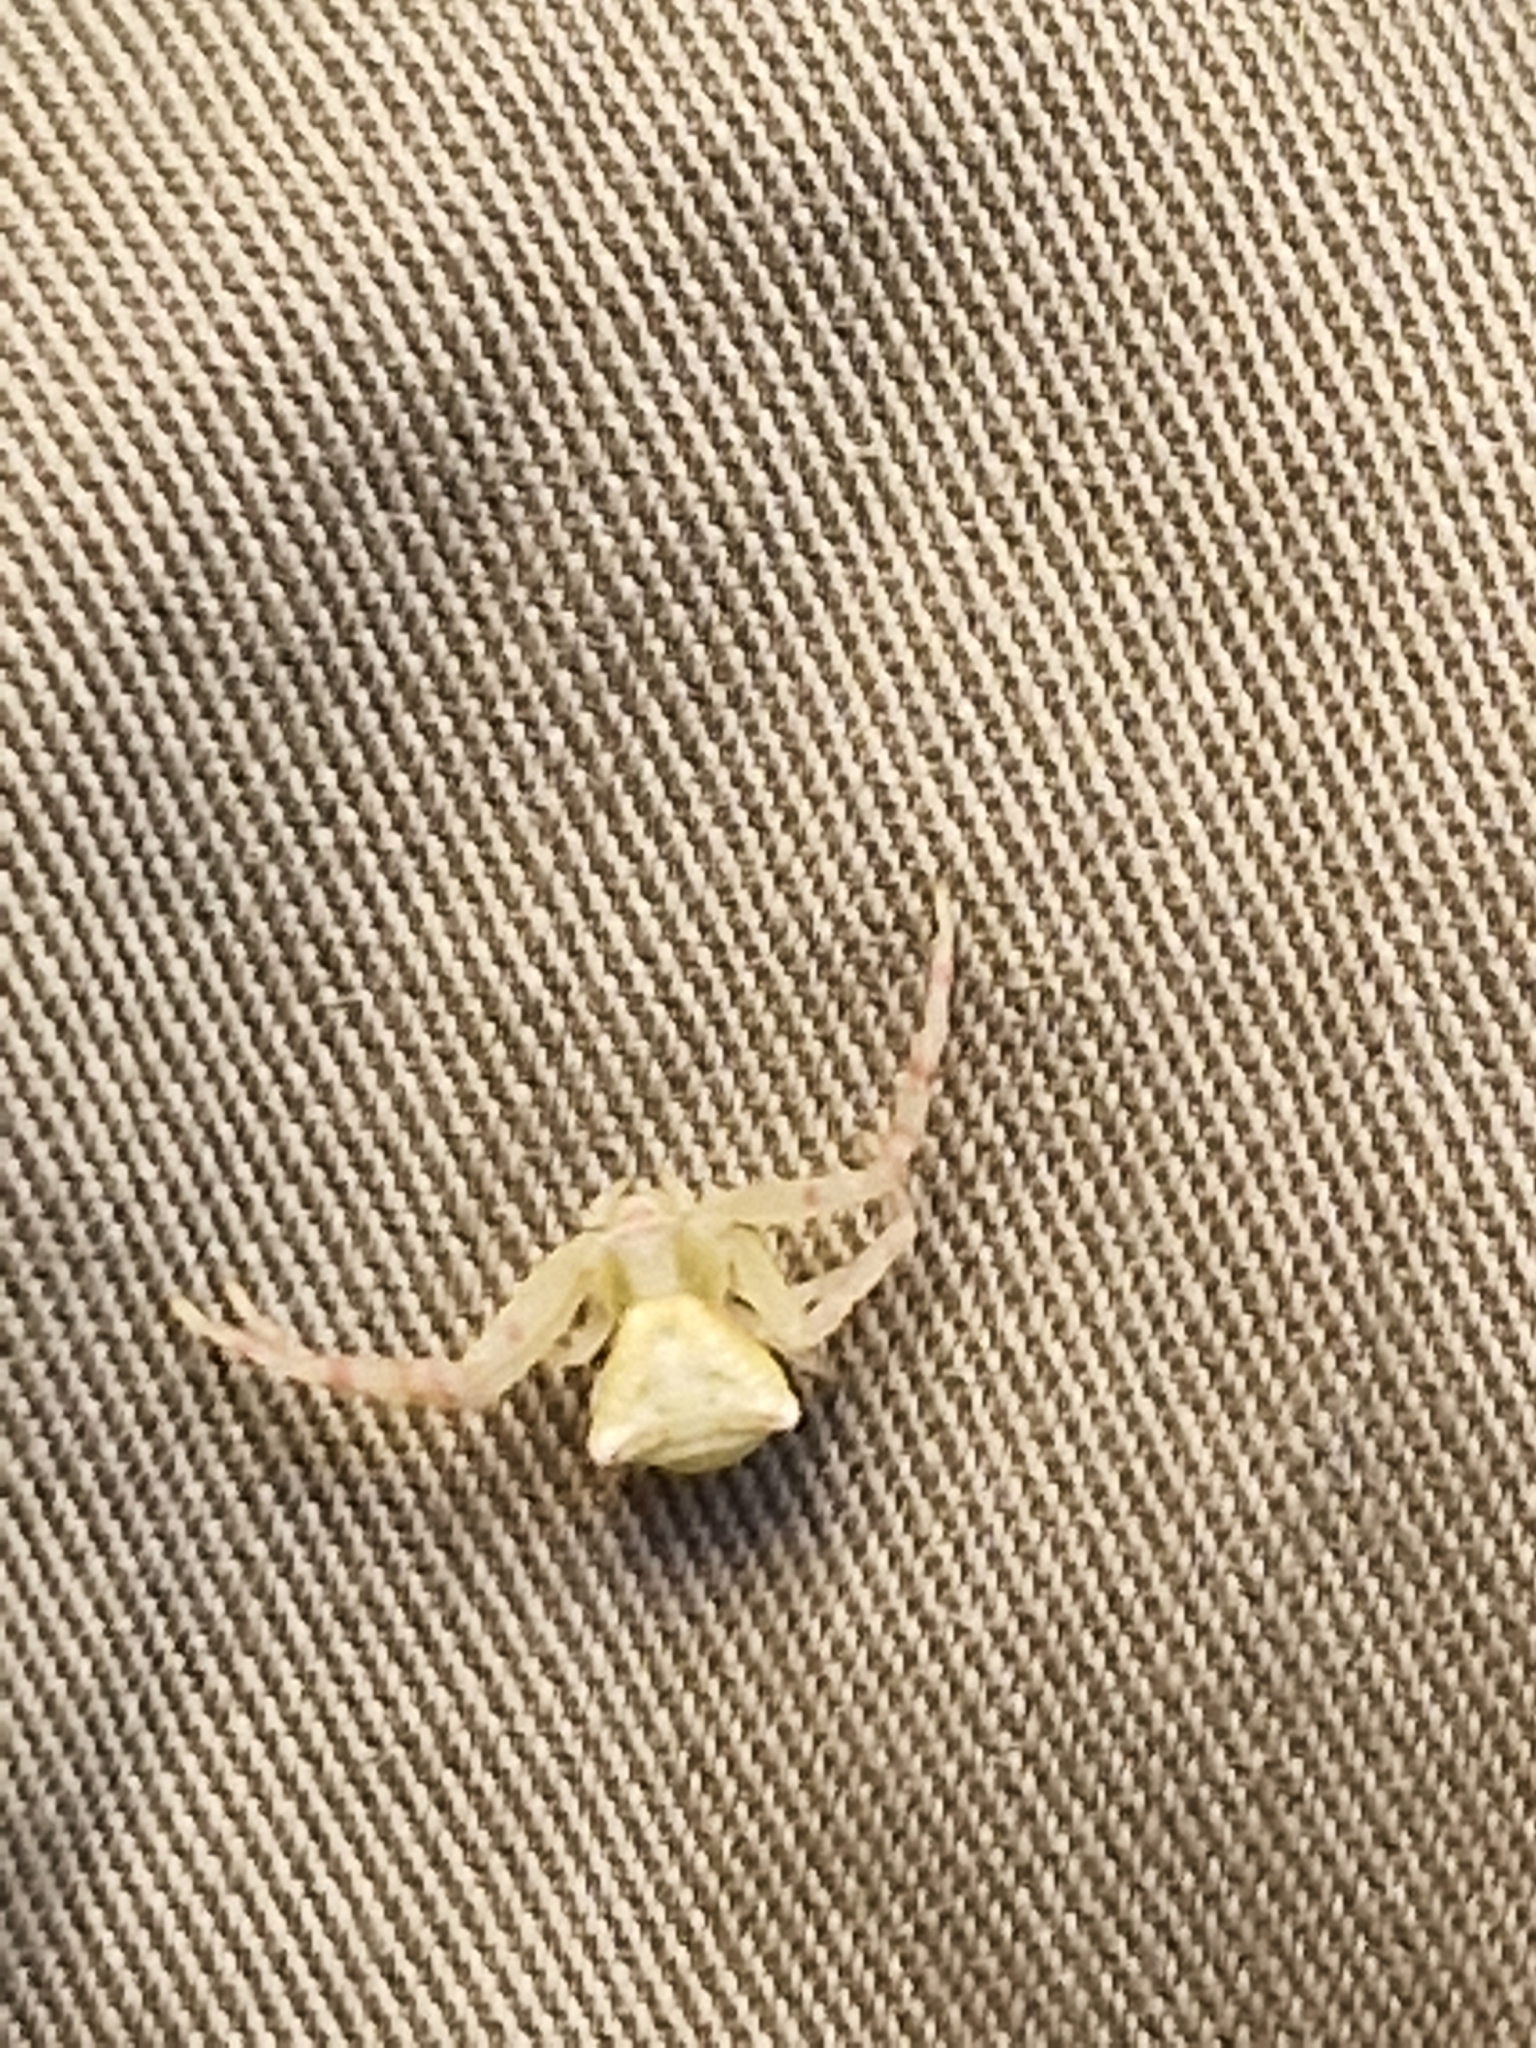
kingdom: Animalia
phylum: Arthropoda
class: Arachnida
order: Araneae
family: Thomisidae
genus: Thomisus
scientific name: Thomisus onustus
